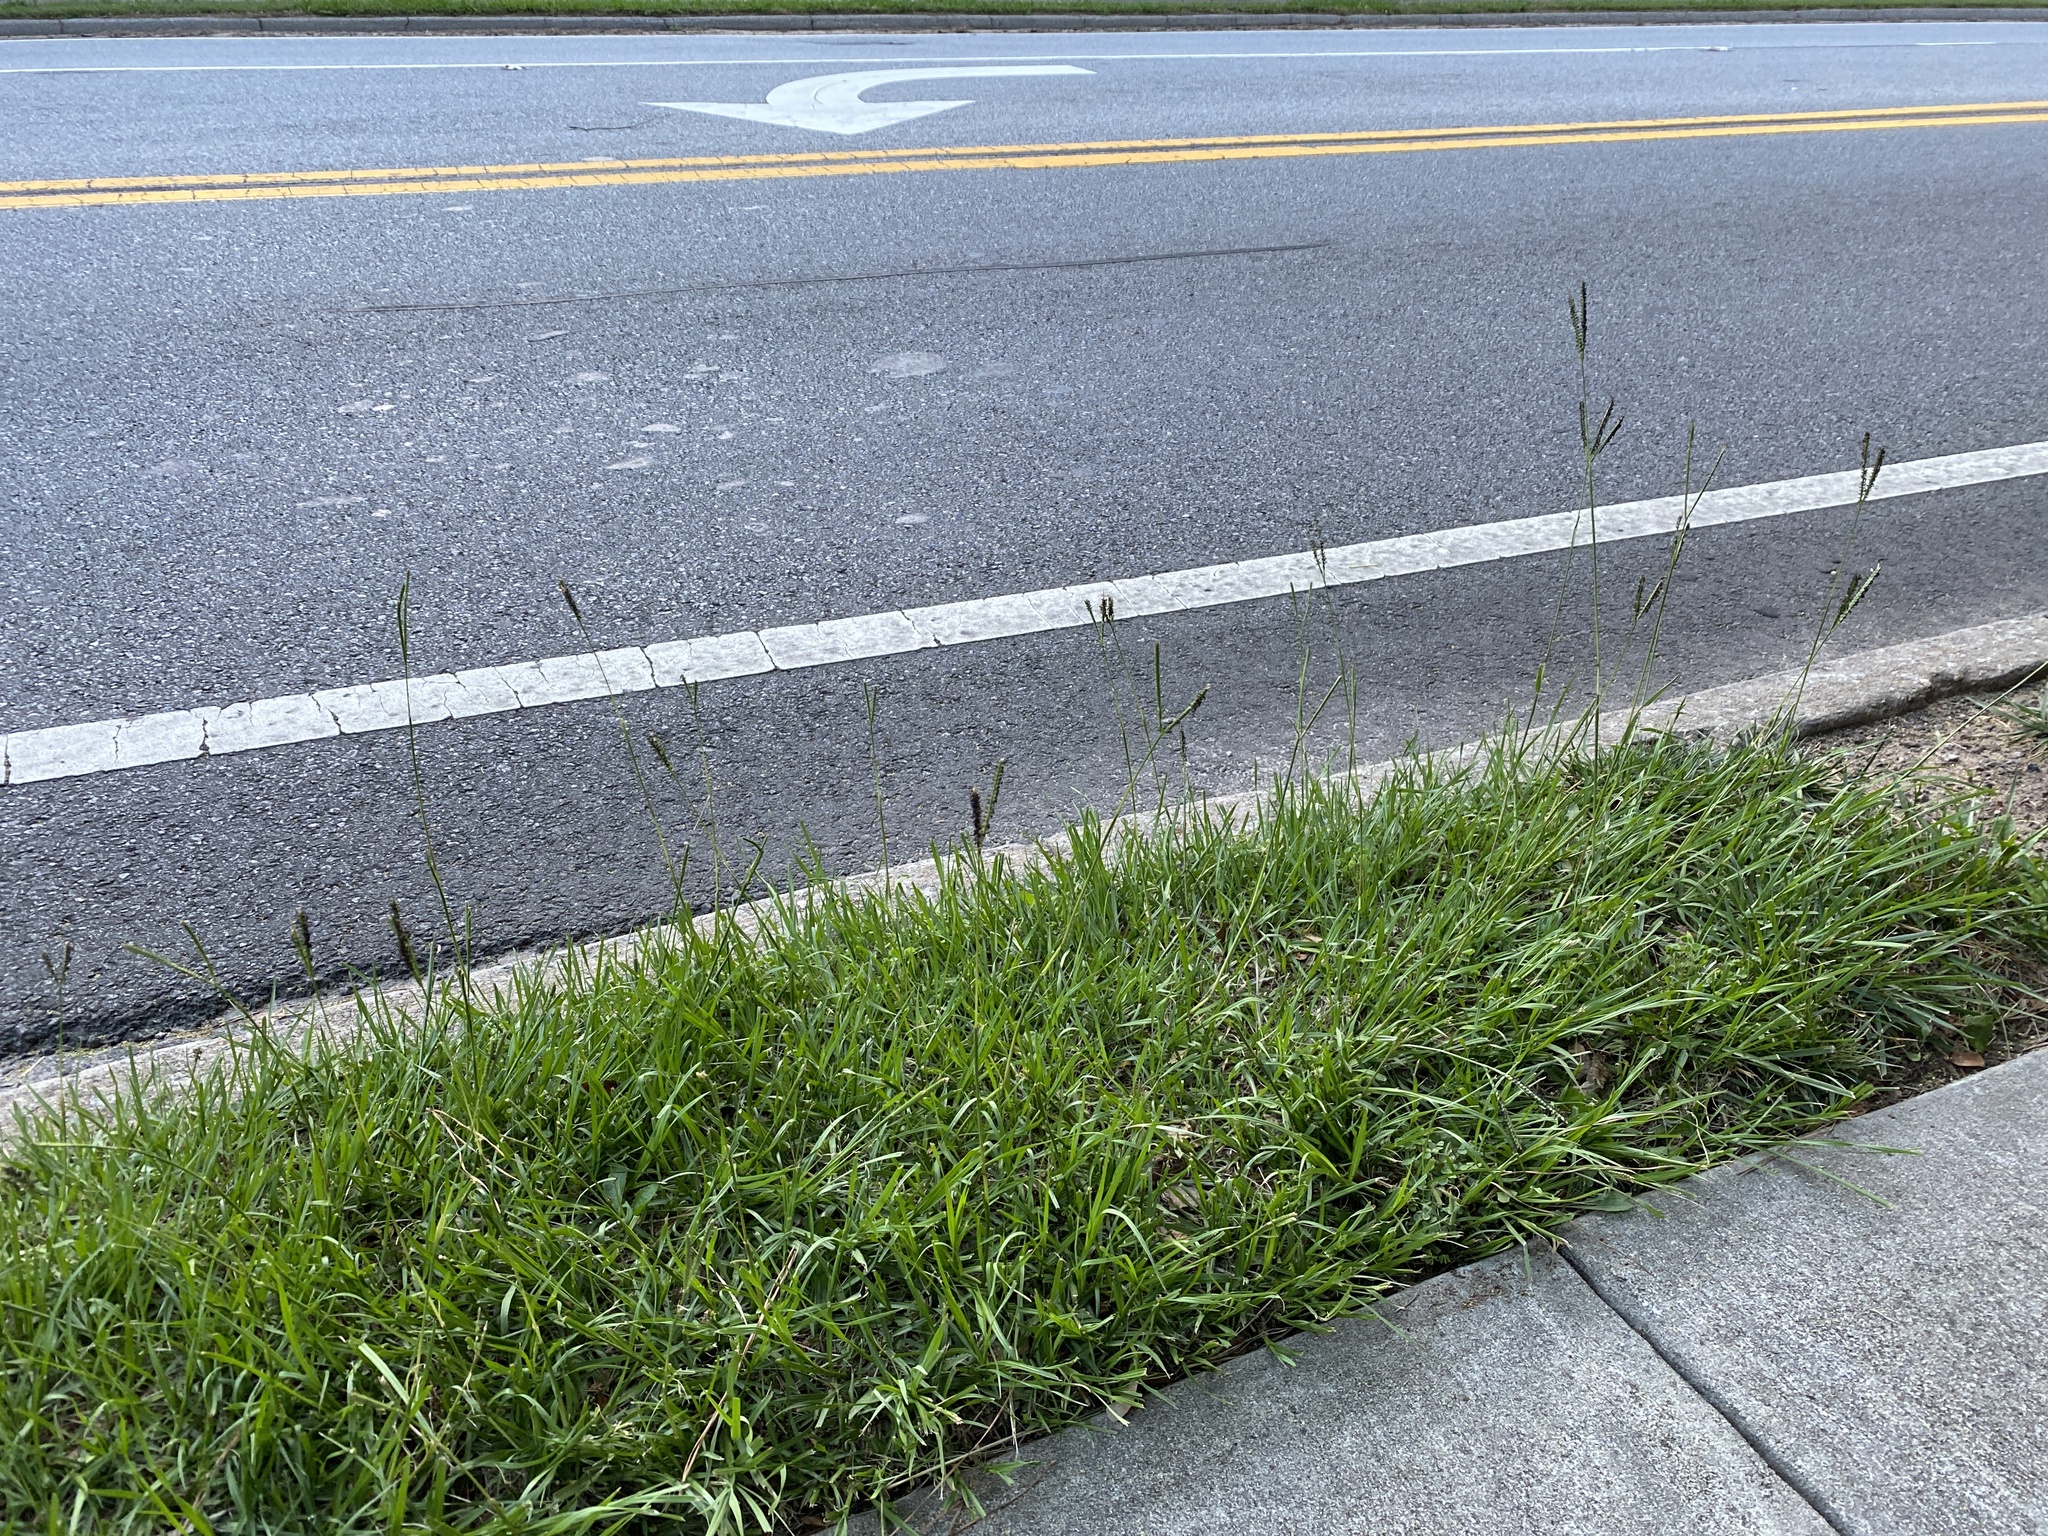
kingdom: Plantae
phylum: Tracheophyta
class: Liliopsida
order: Poales
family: Poaceae
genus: Paspalum
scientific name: Paspalum notatum
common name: Bahiagrass
